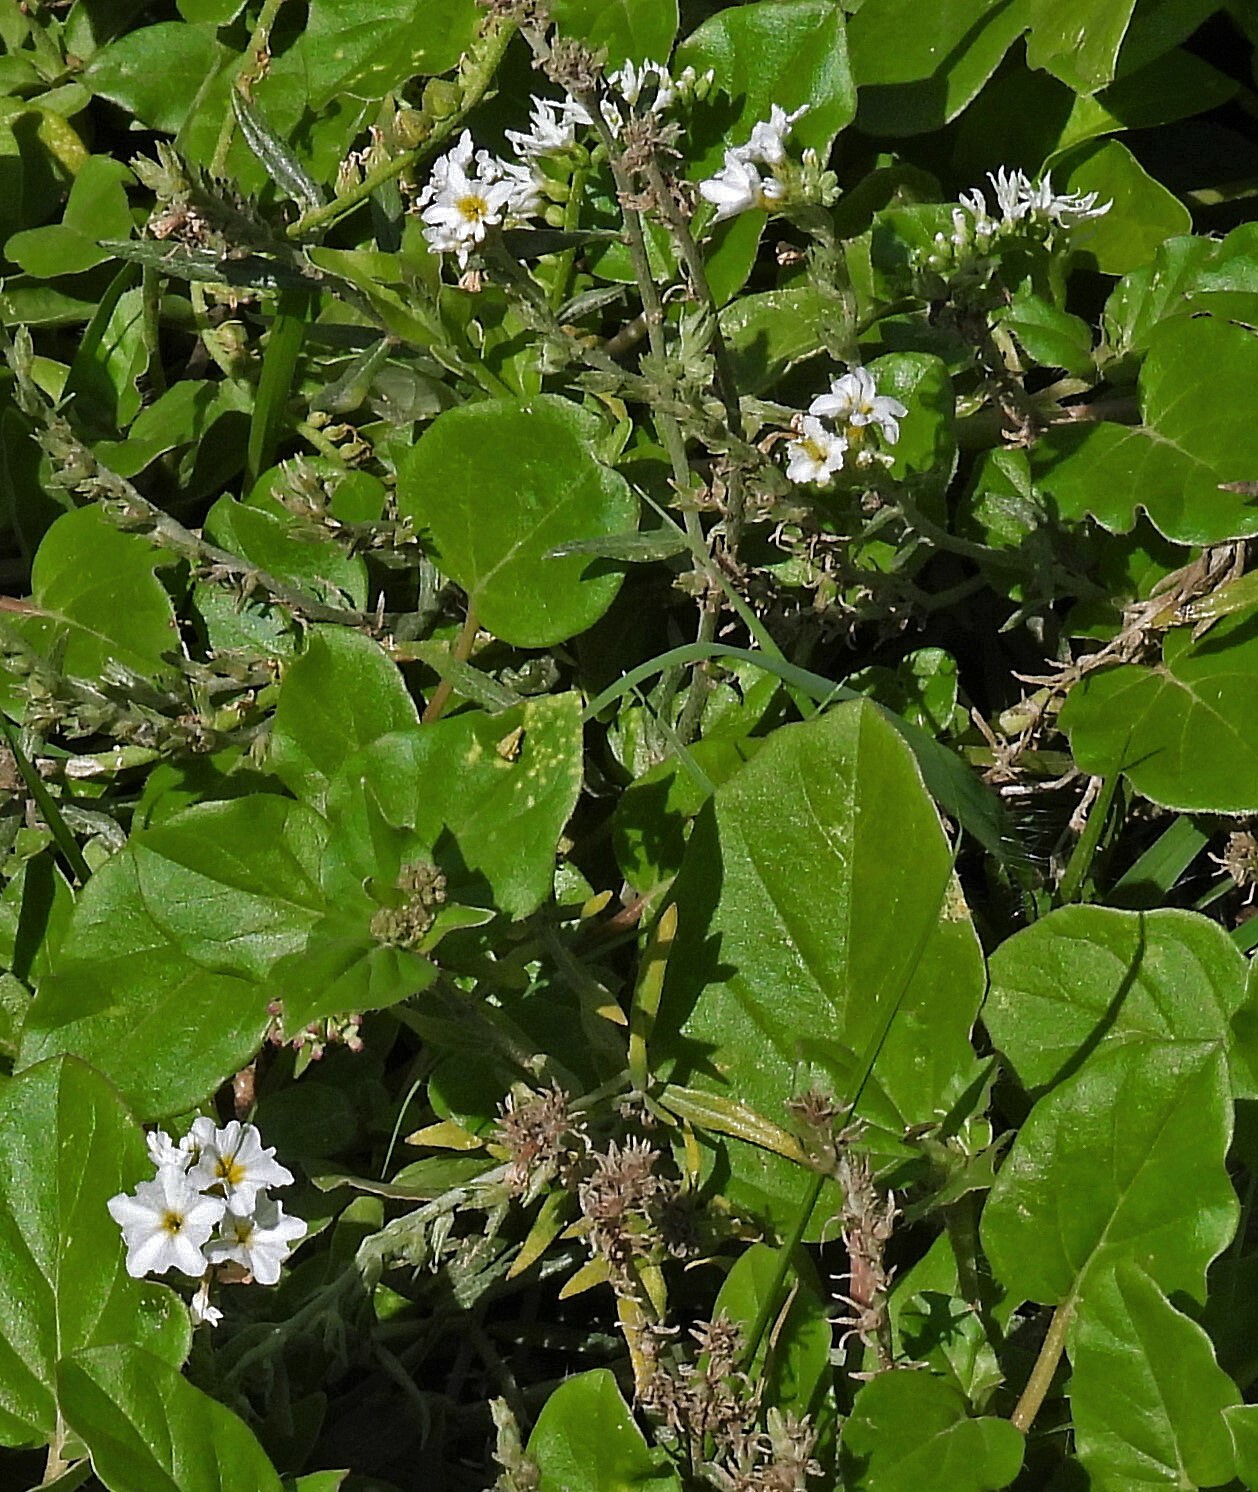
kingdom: Plantae
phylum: Tracheophyta
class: Magnoliopsida
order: Boraginales
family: Heliotropiaceae
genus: Euploca
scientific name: Euploca procumbens
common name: Fourspike heliotrope
